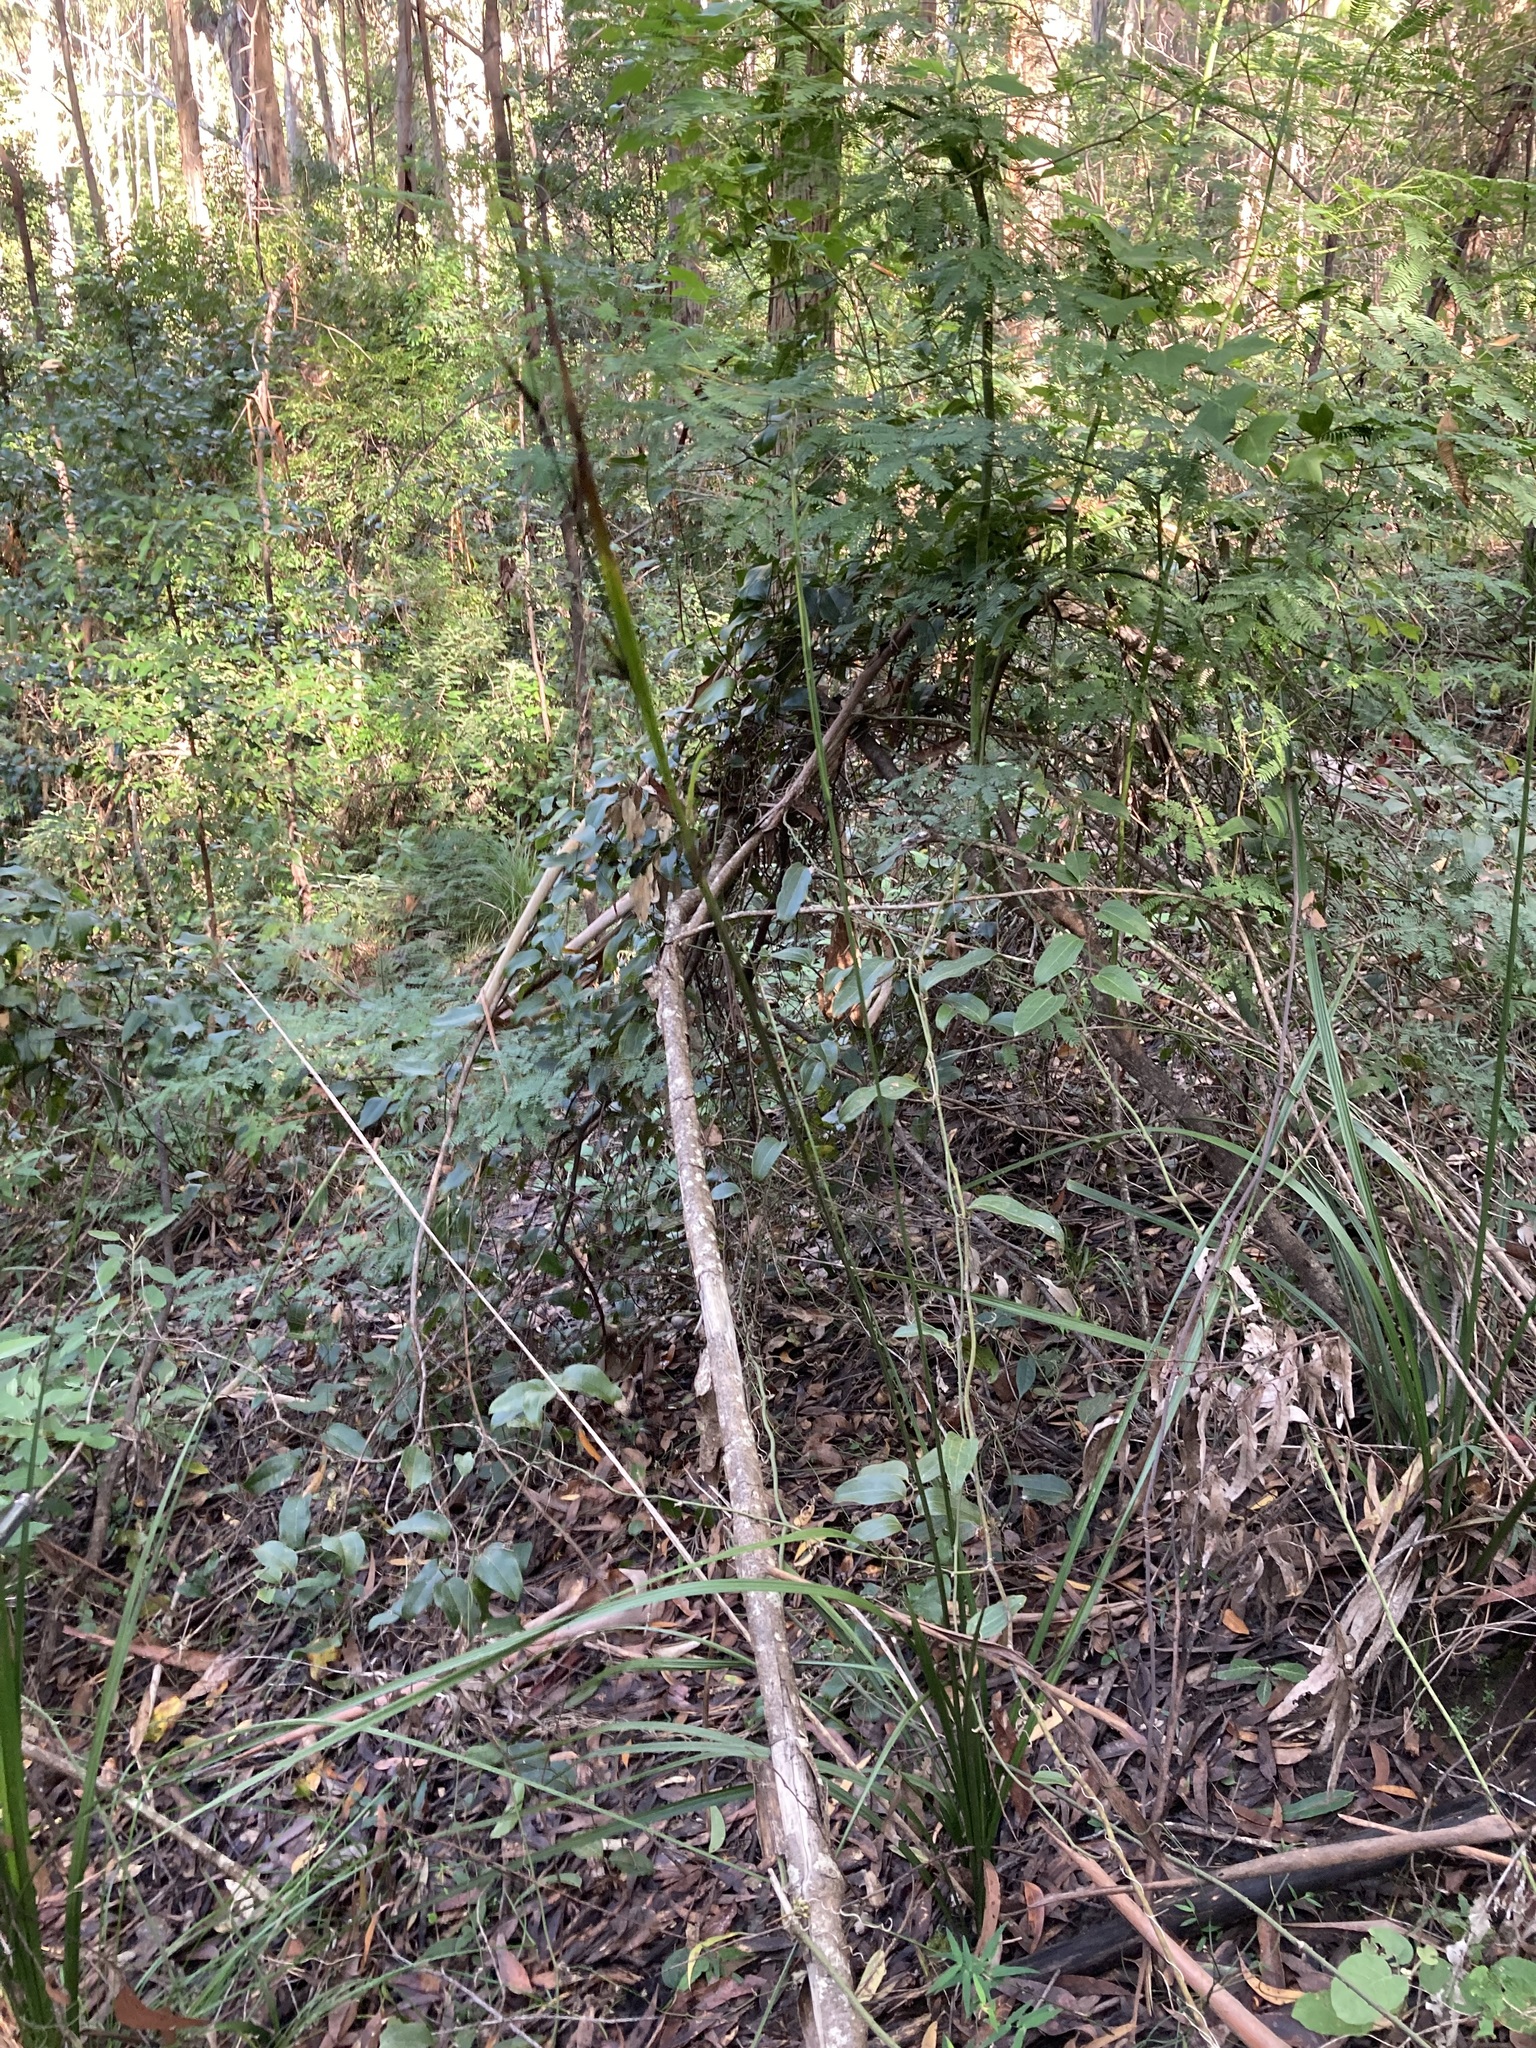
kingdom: Plantae
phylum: Tracheophyta
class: Liliopsida
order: Alismatales
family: Araceae
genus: Gymnostachys
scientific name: Gymnostachys anceps
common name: Settler's-flax
